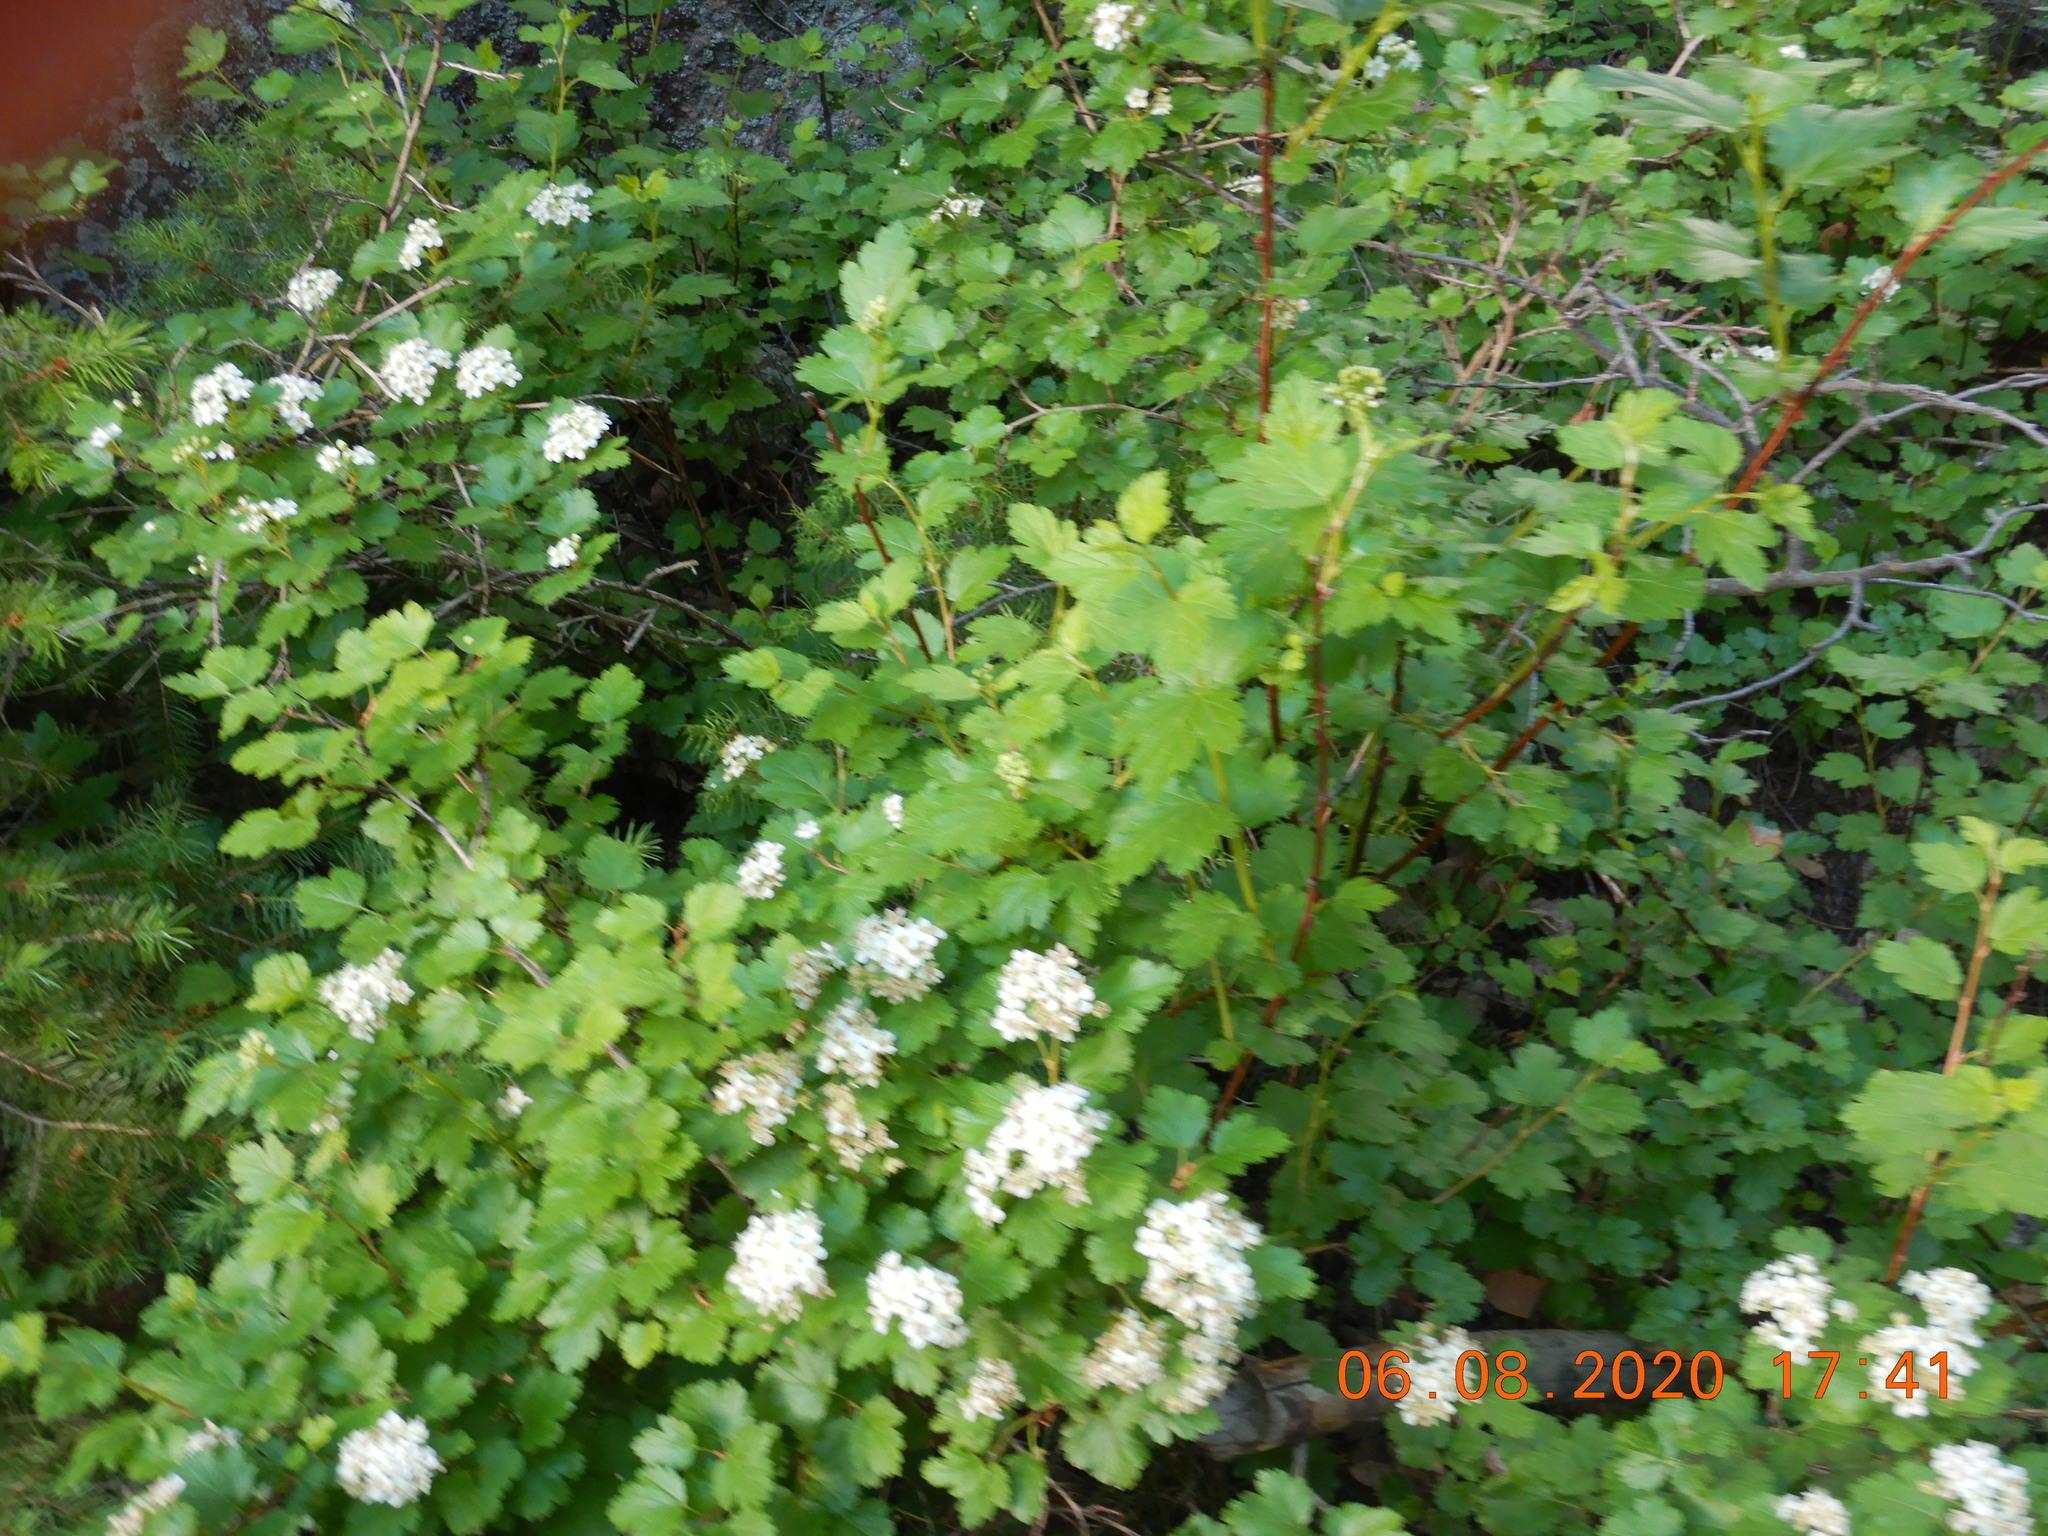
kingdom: Plantae
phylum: Tracheophyta
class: Magnoliopsida
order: Rosales
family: Rosaceae
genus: Physocarpus
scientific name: Physocarpus monogynus
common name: Mountain ninebark
